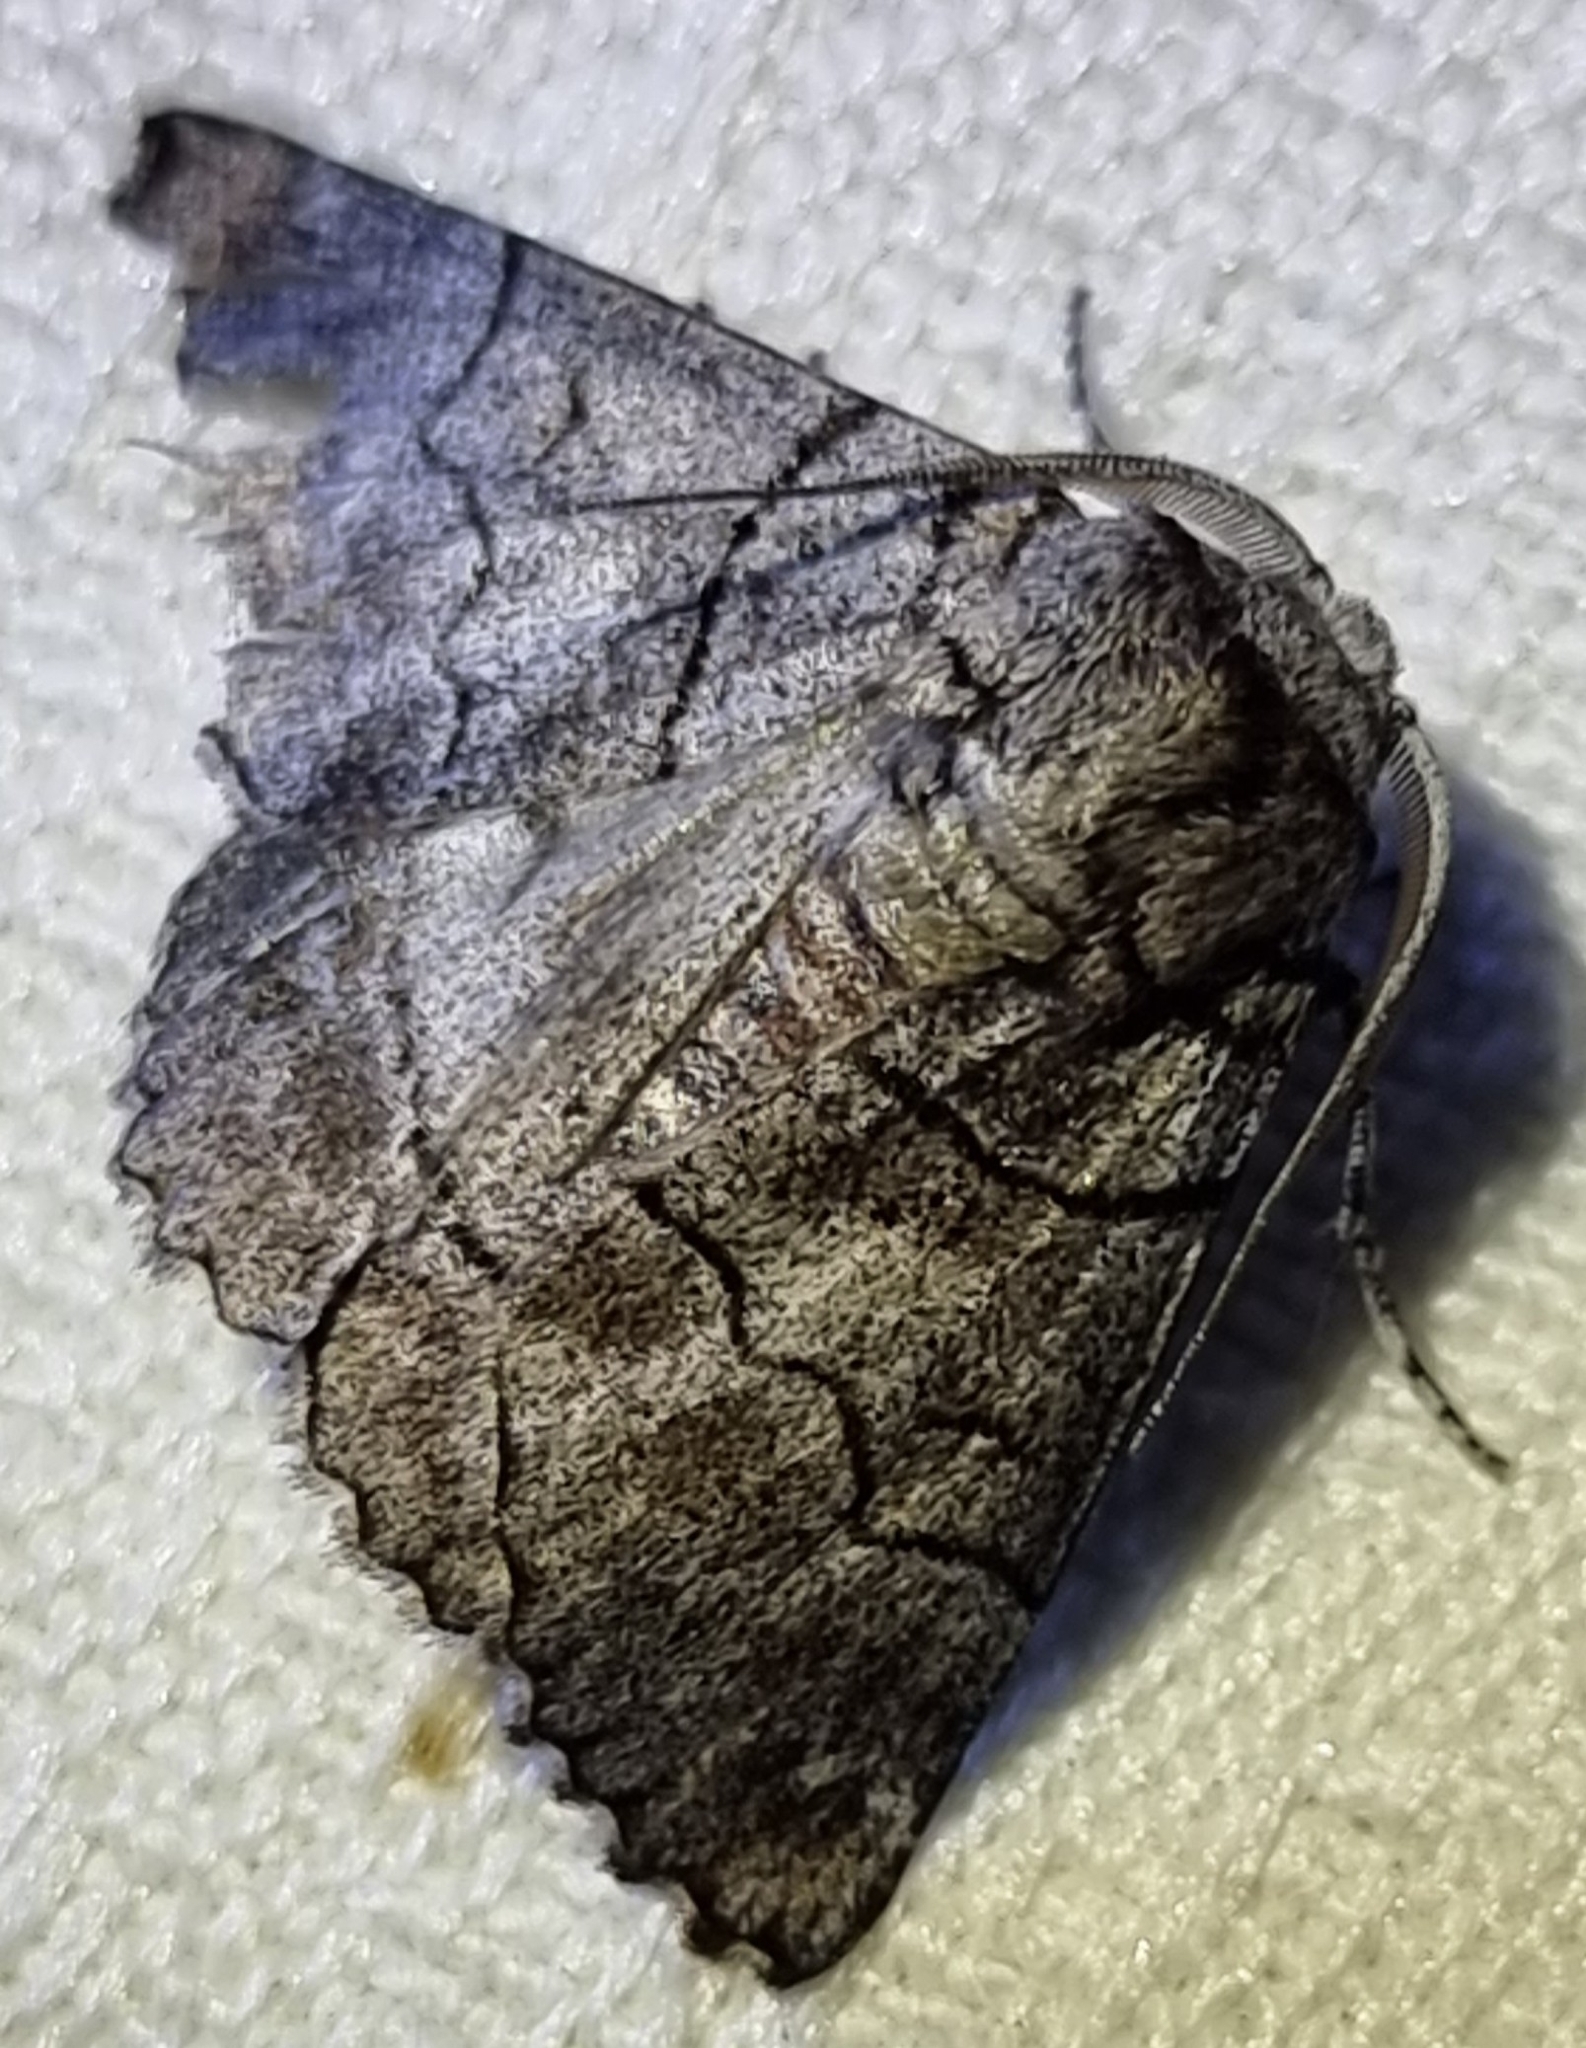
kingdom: Animalia
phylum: Arthropoda
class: Insecta
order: Lepidoptera
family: Geometridae
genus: Hypobapta
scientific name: Hypobapta barnardi
